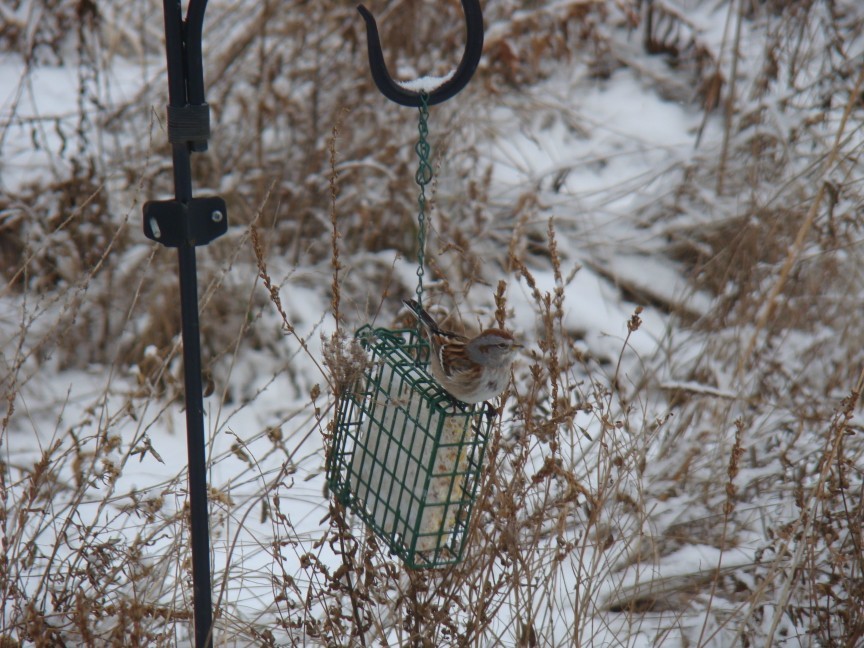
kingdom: Animalia
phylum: Chordata
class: Aves
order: Passeriformes
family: Passerellidae
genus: Spizelloides
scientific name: Spizelloides arborea
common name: American tree sparrow
